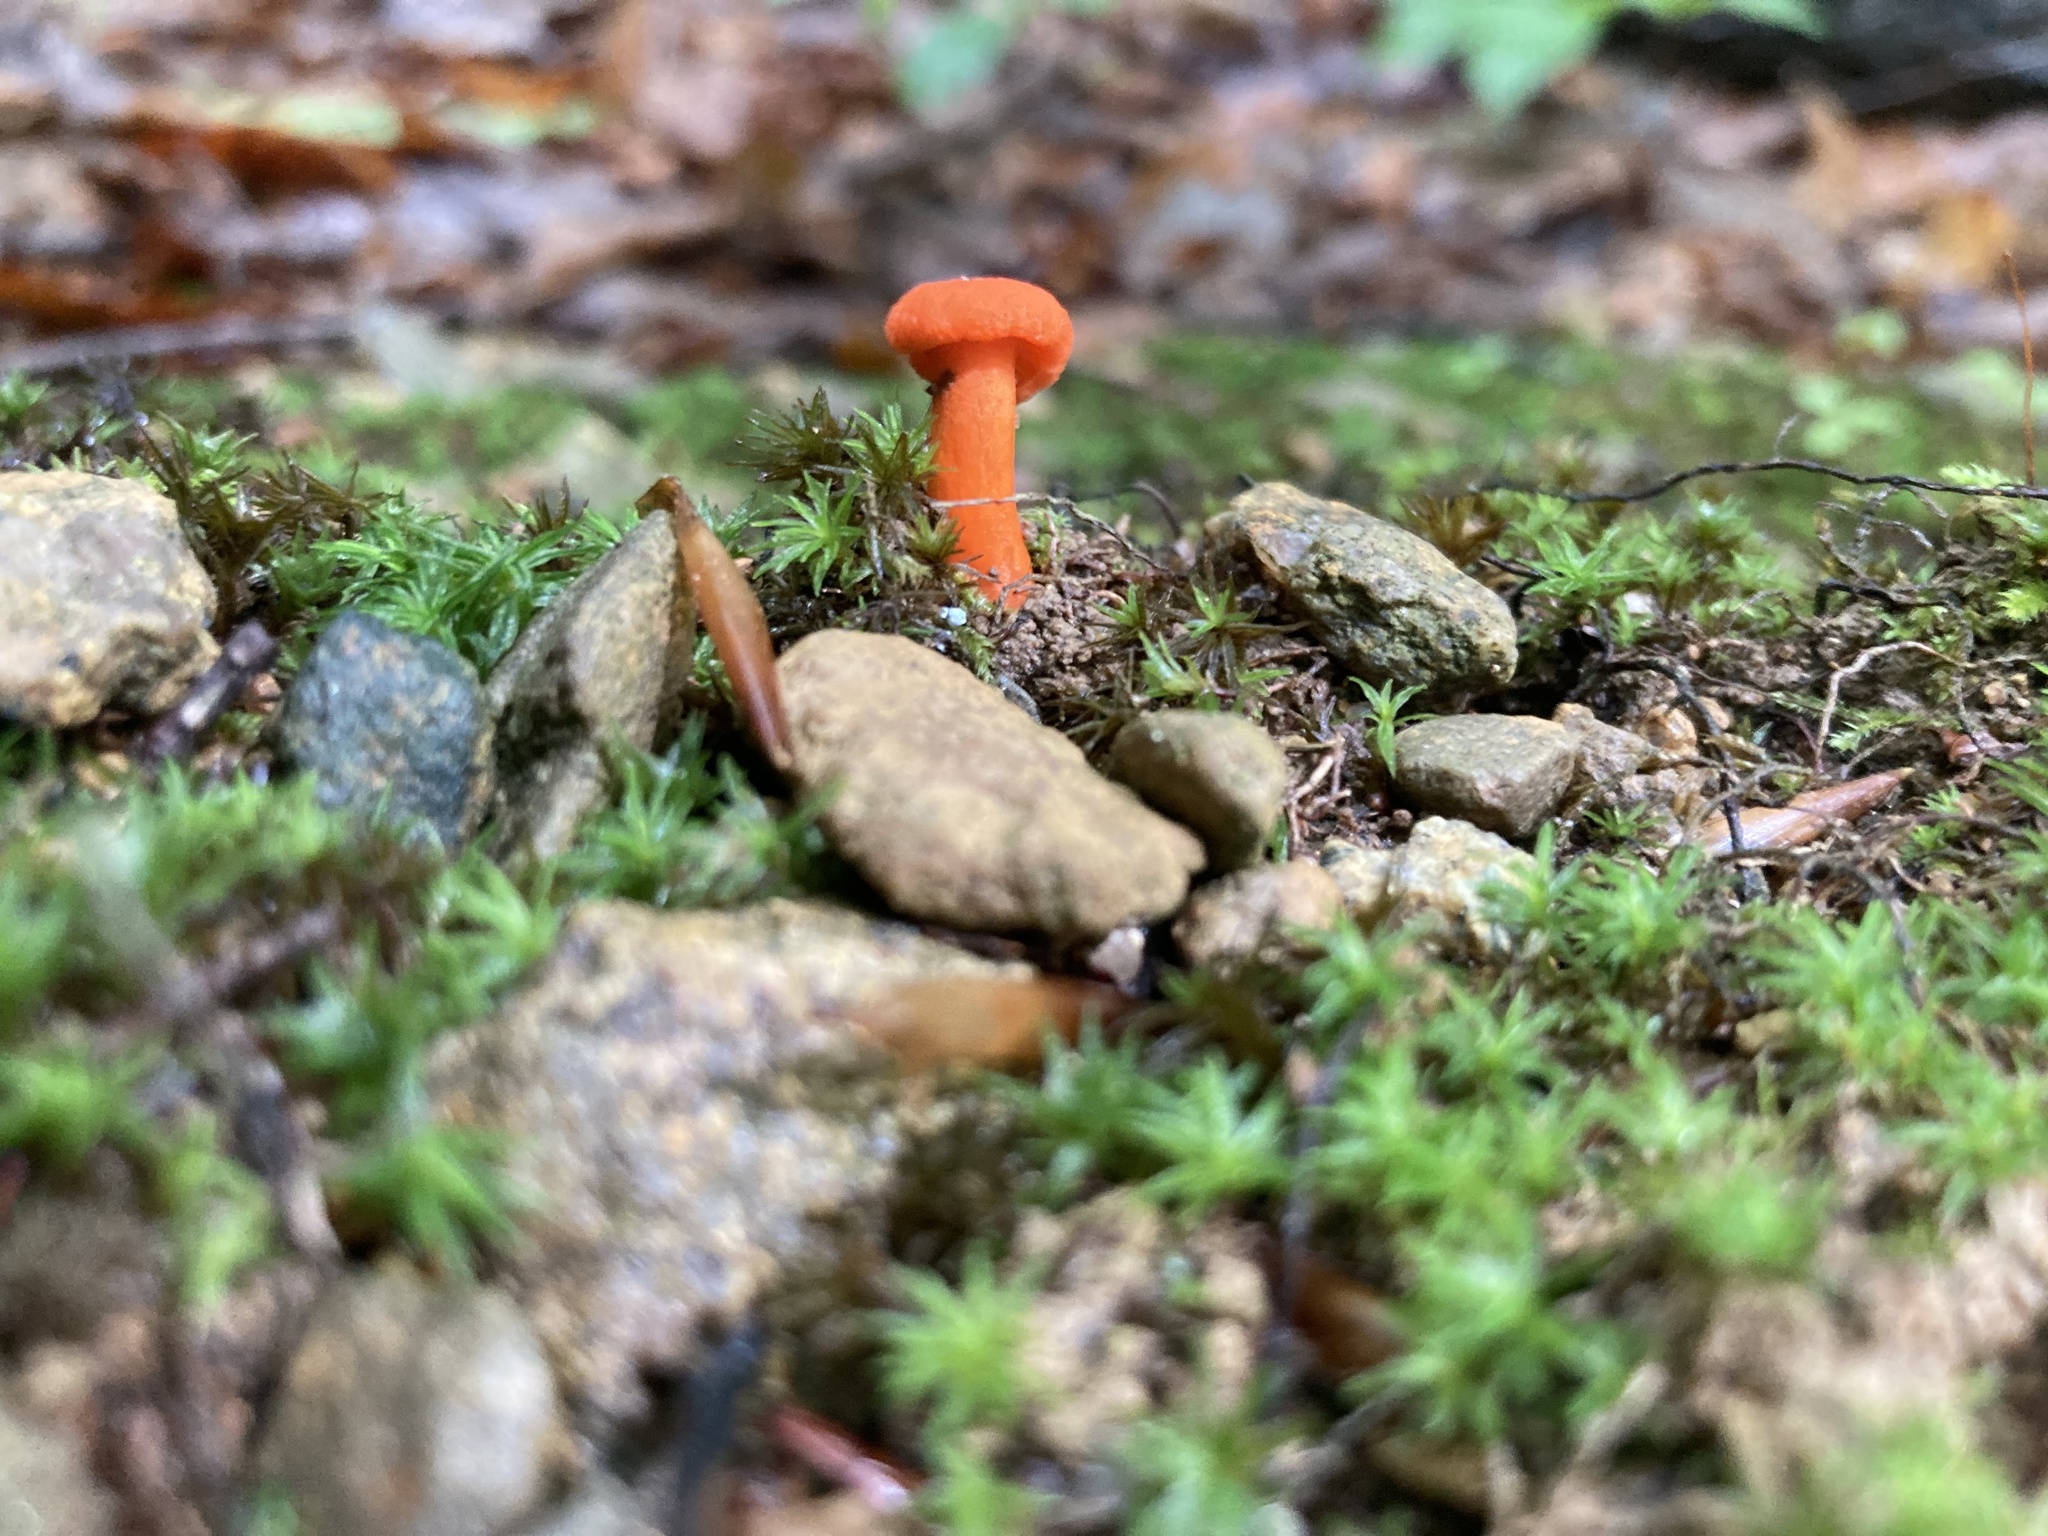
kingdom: Fungi
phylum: Basidiomycota
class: Agaricomycetes
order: Cantharellales
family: Hydnaceae
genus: Cantharellus
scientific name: Cantharellus cinnabarinus
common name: Cinnabar chanterelle
